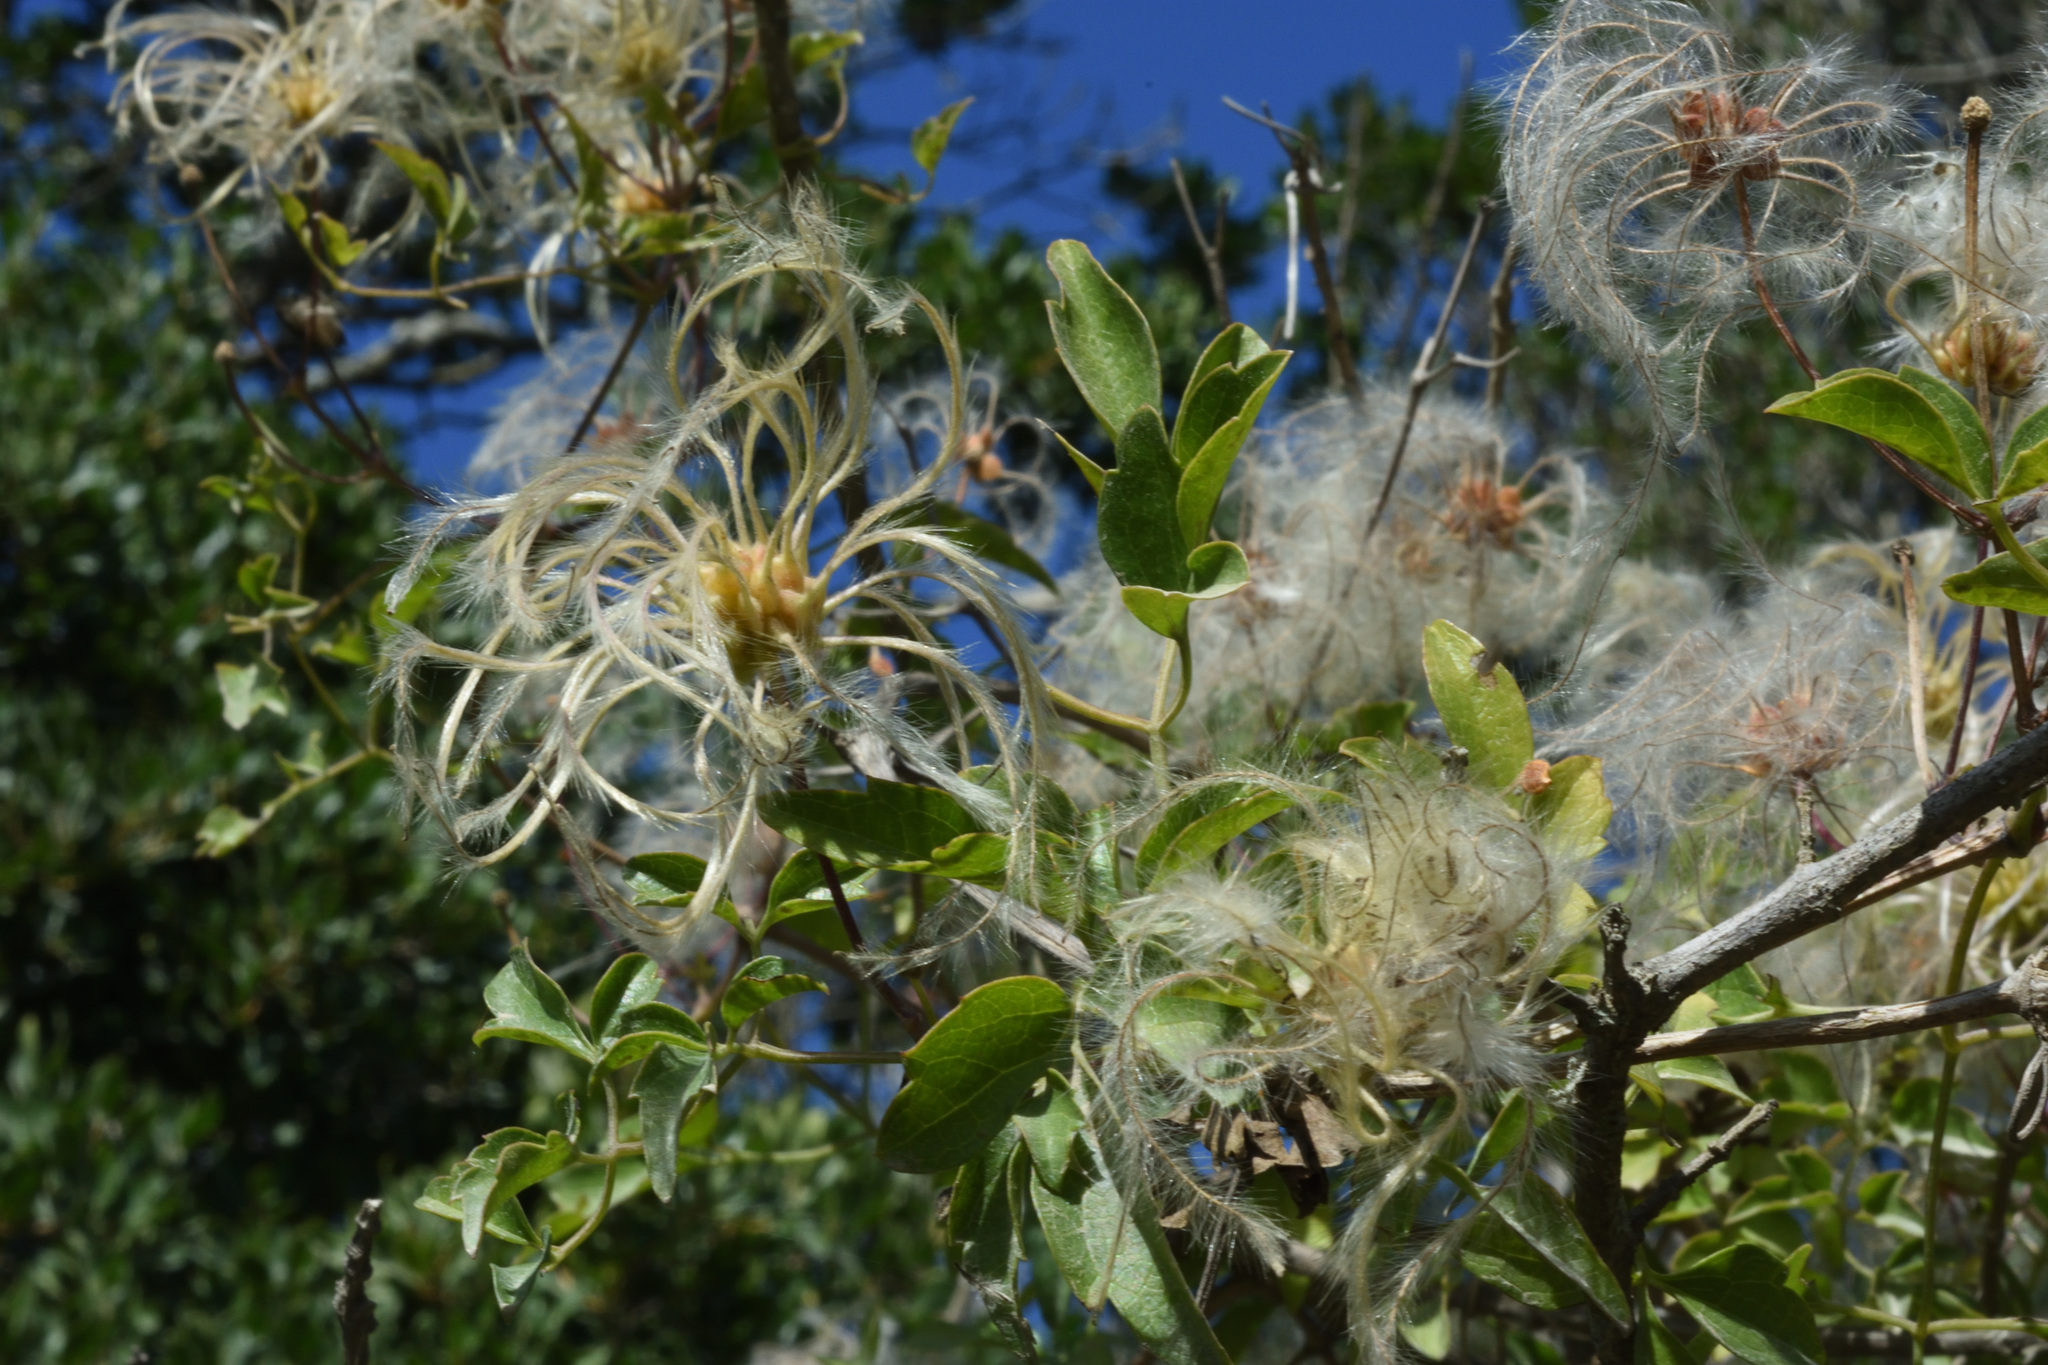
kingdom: Plantae
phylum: Tracheophyta
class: Magnoliopsida
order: Ranunculales
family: Ranunculaceae
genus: Clematis
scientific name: Clematis brachiata
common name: Traveler's-joy
